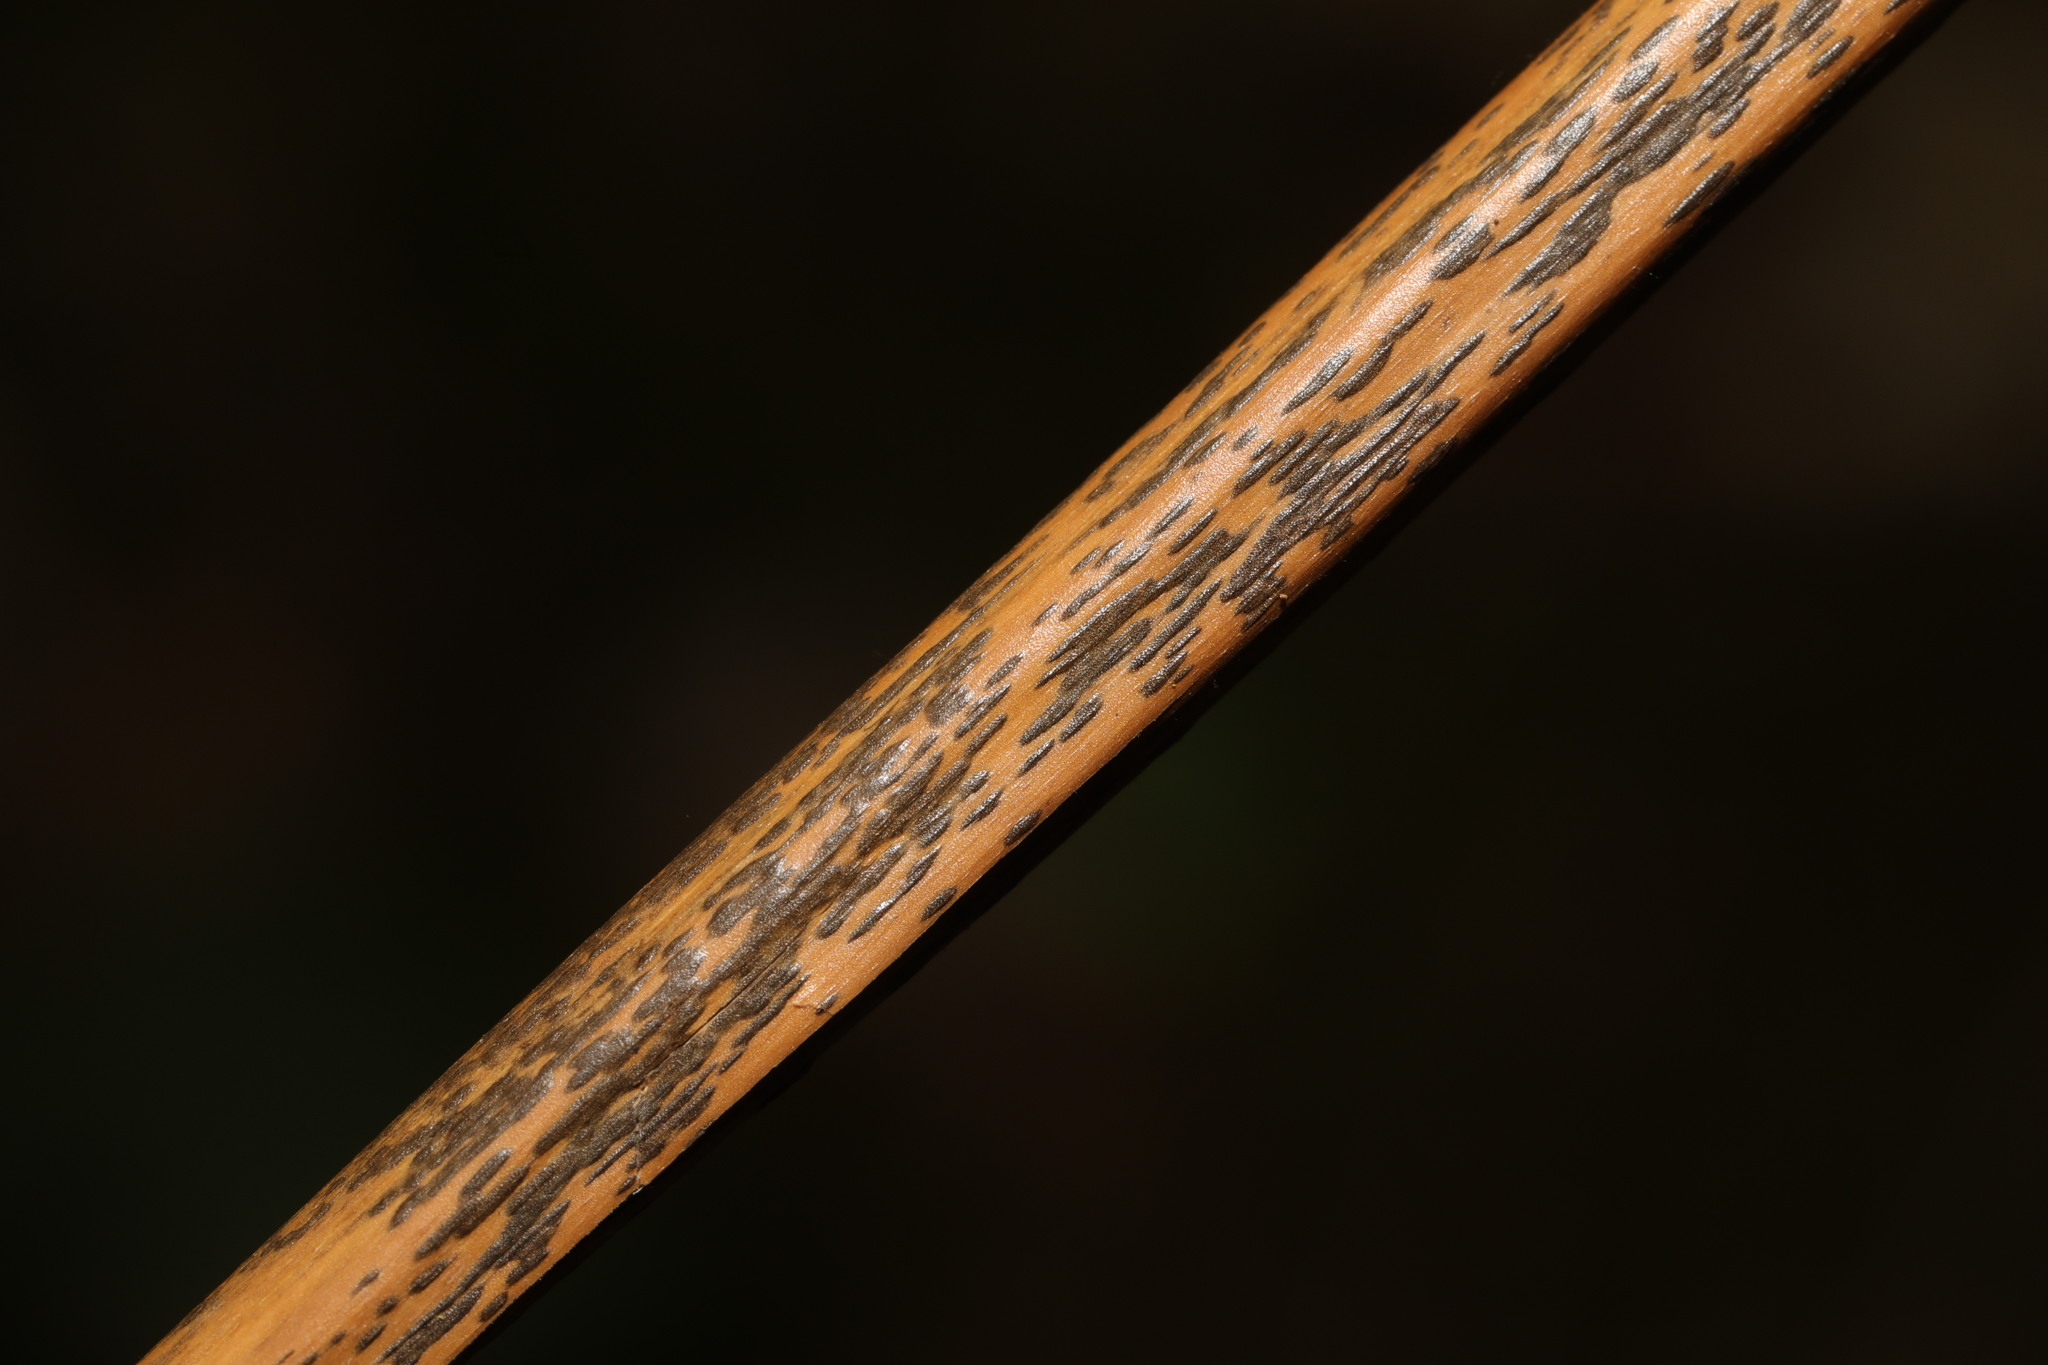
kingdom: Fungi
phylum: Ascomycota
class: Dothideomycetes
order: Pleosporales
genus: Rhopographus
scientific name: Rhopographus filicinus
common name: Bracken map
